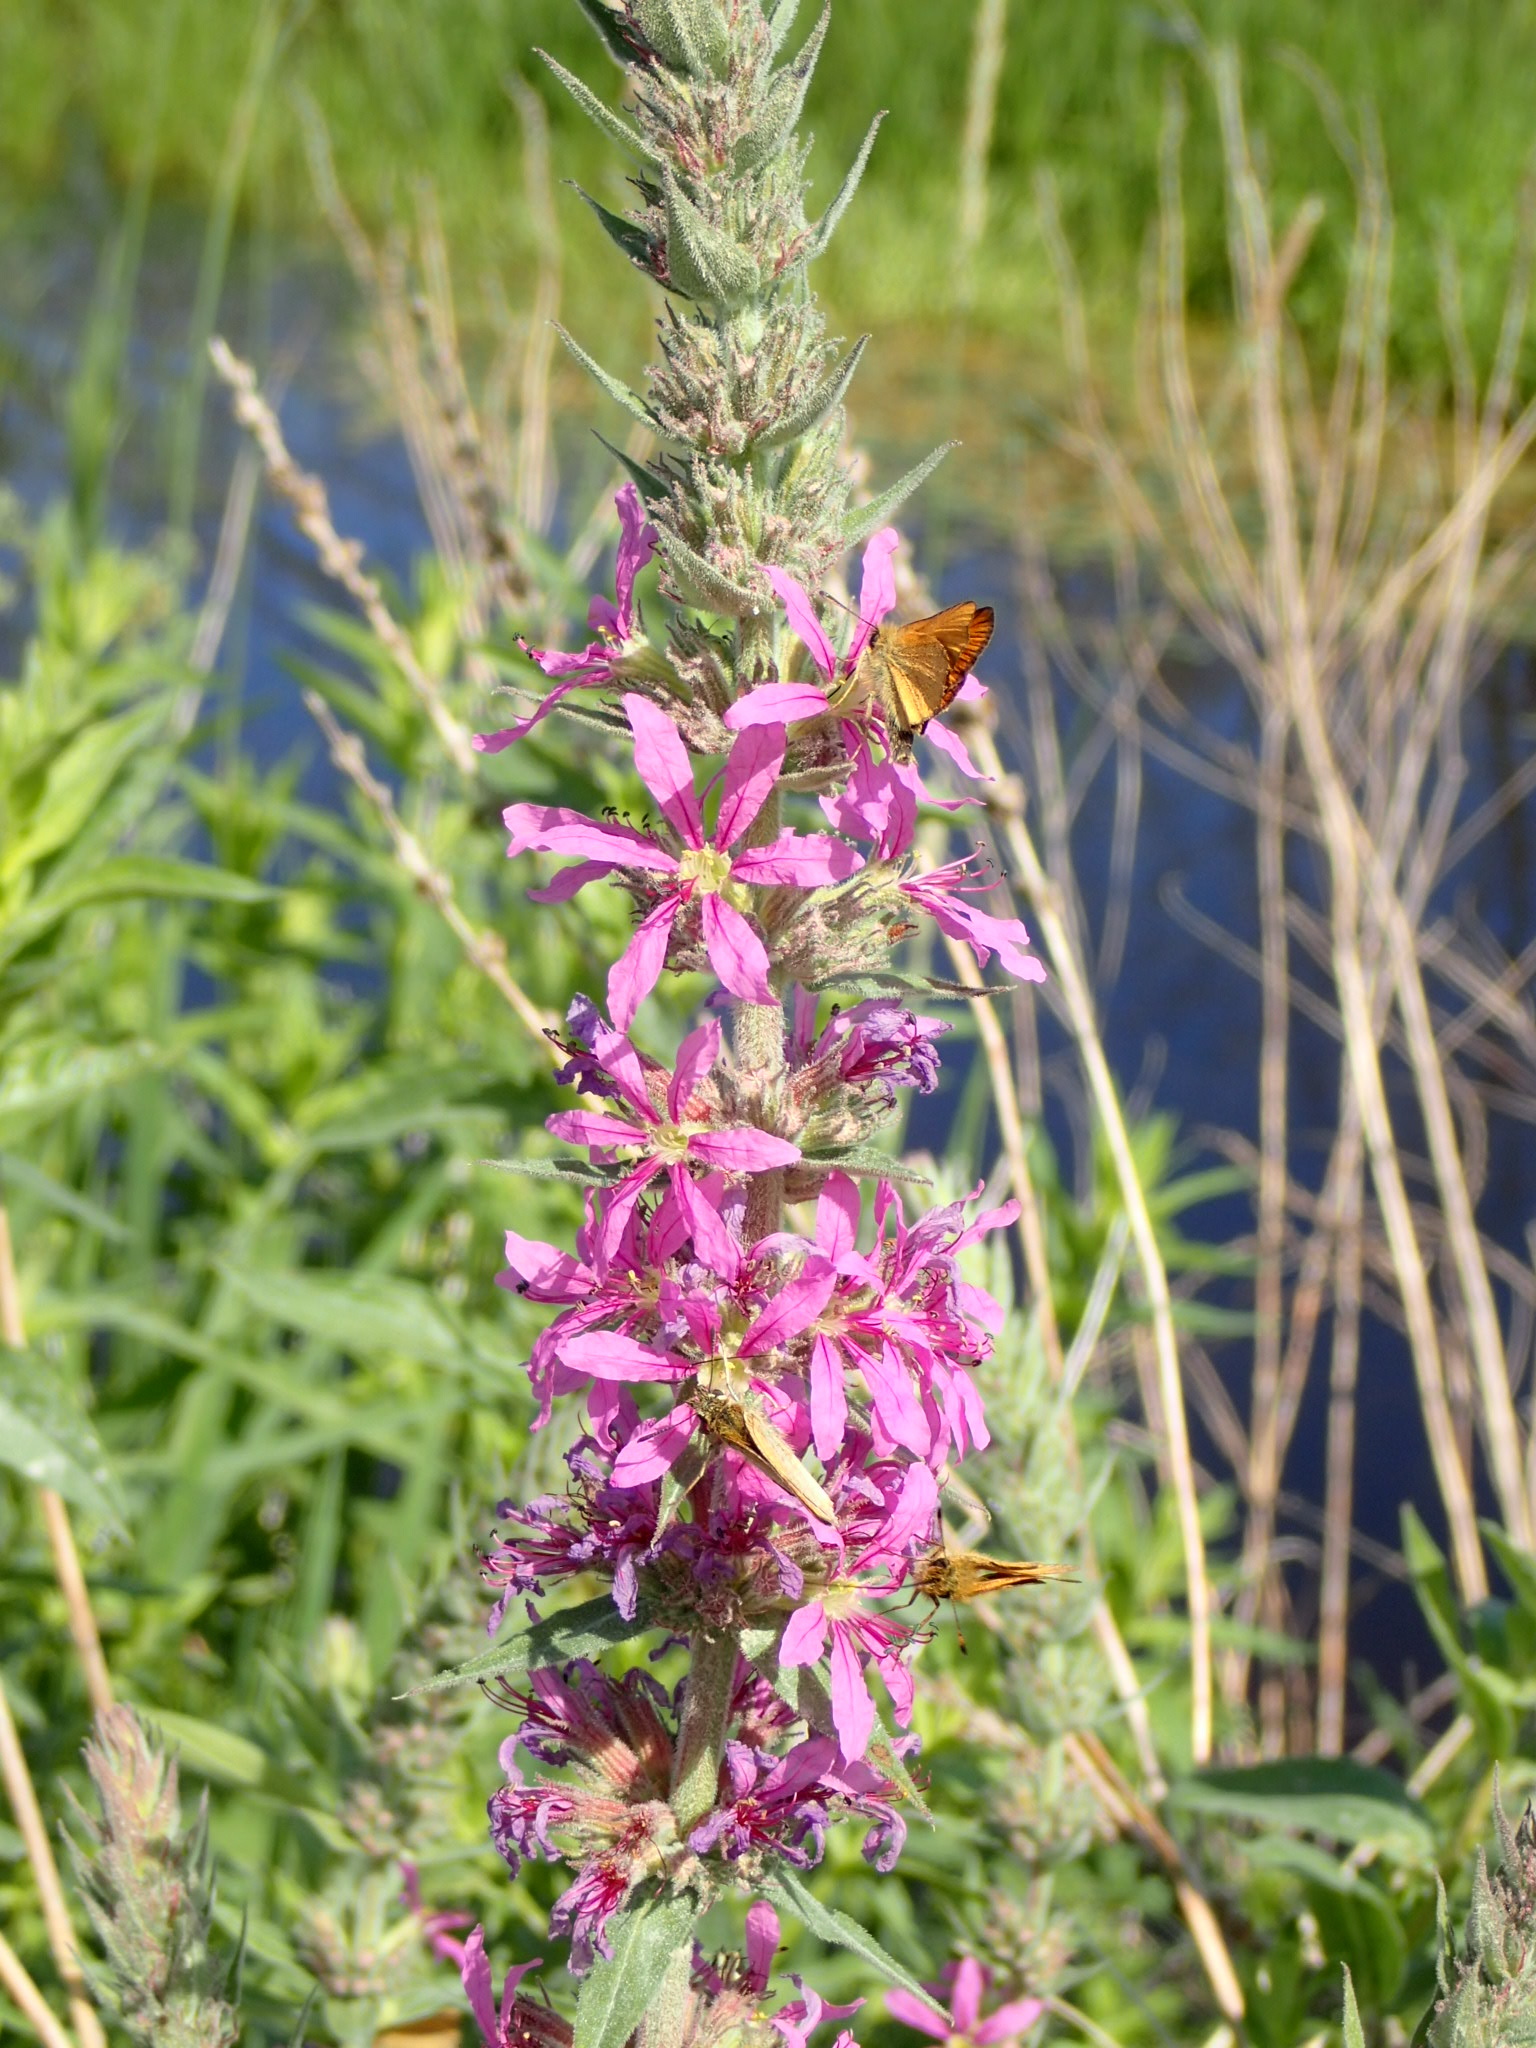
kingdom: Plantae
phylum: Tracheophyta
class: Magnoliopsida
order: Myrtales
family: Lythraceae
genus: Lythrum
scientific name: Lythrum salicaria
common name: Purple loosestrife
